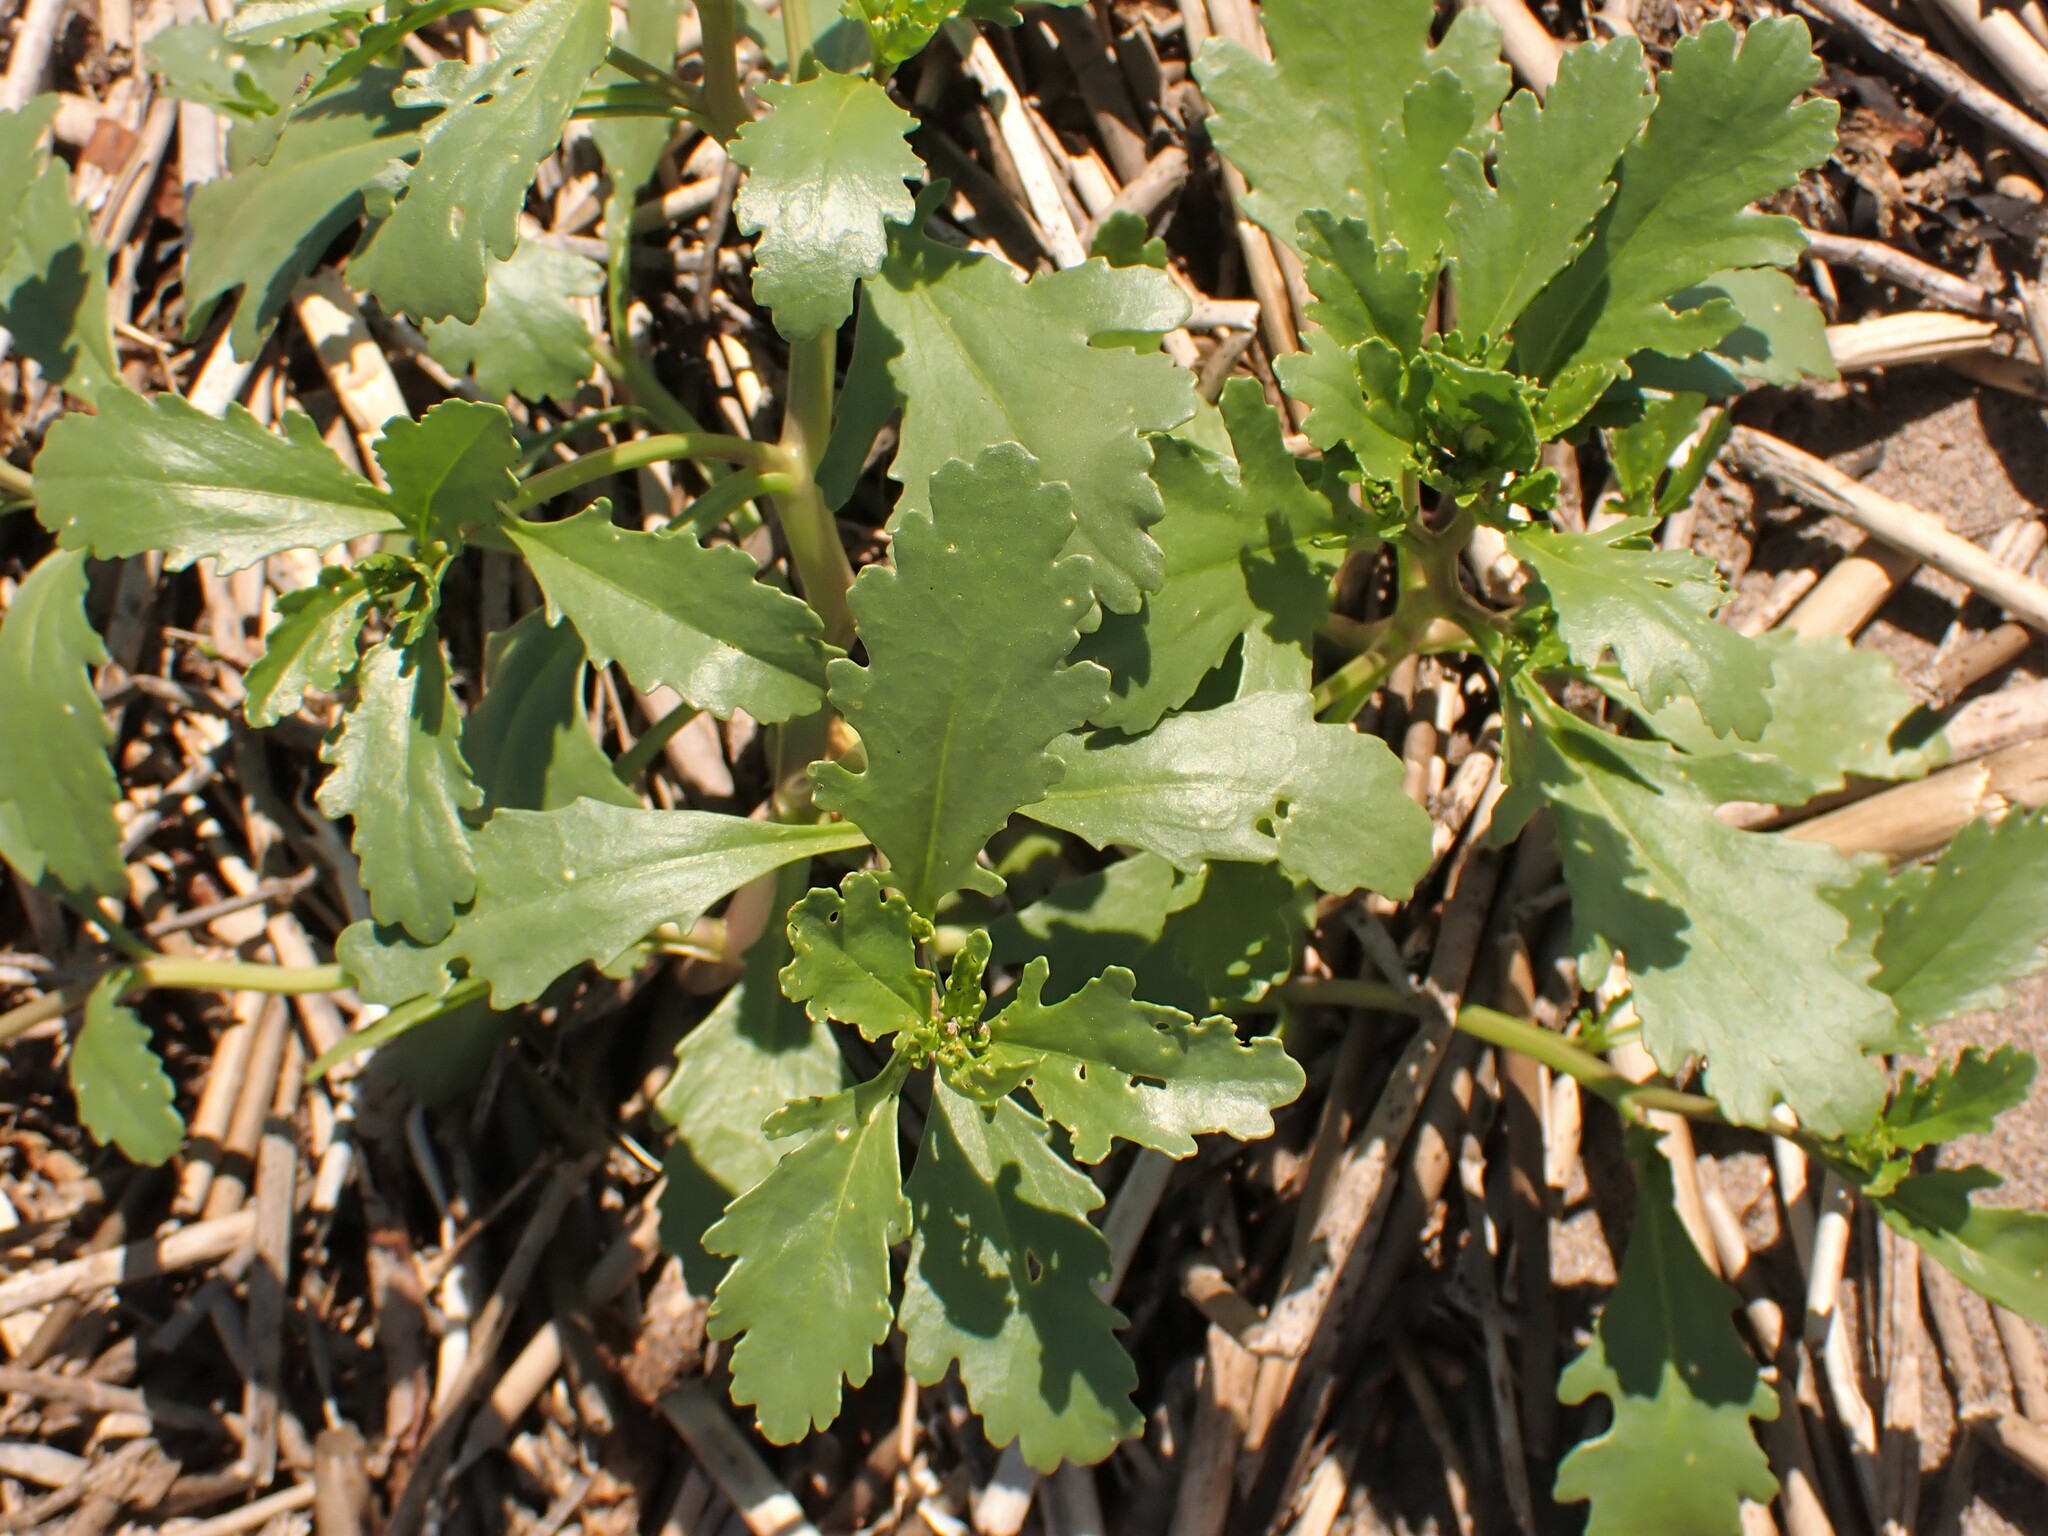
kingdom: Plantae
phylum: Tracheophyta
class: Magnoliopsida
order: Brassicales
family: Brassicaceae
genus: Cakile
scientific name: Cakile edentula
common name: American sea rocket
